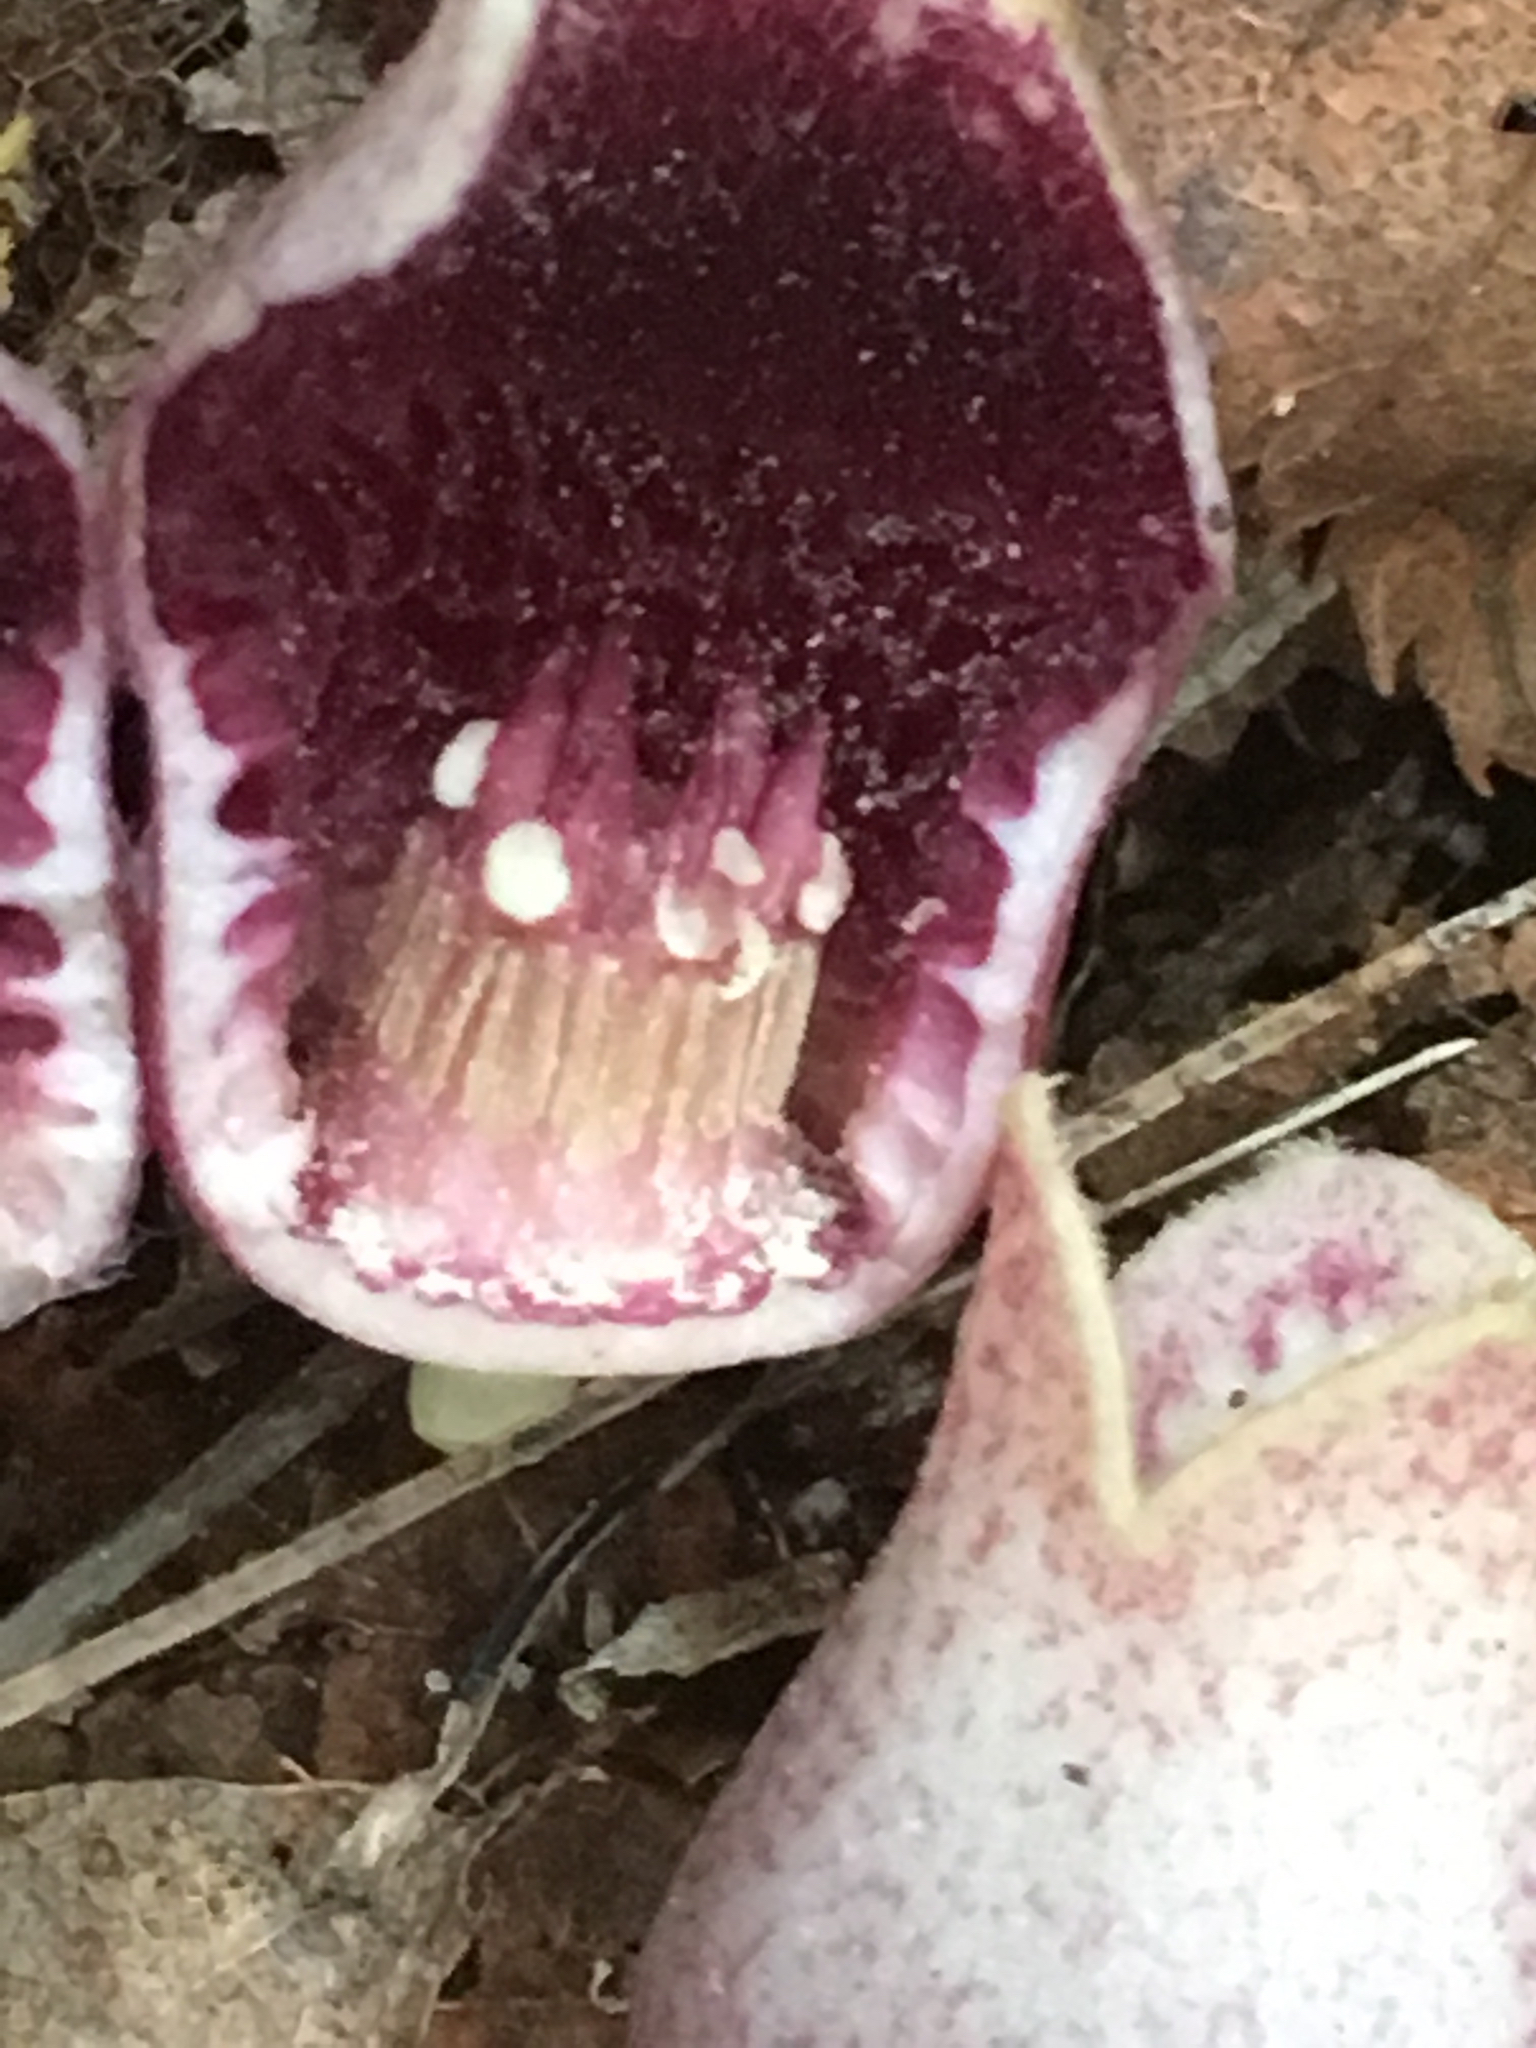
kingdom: Plantae
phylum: Tracheophyta
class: Magnoliopsida
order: Piperales
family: Aristolochiaceae
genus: Hexastylis
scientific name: Hexastylis rhombiformis
